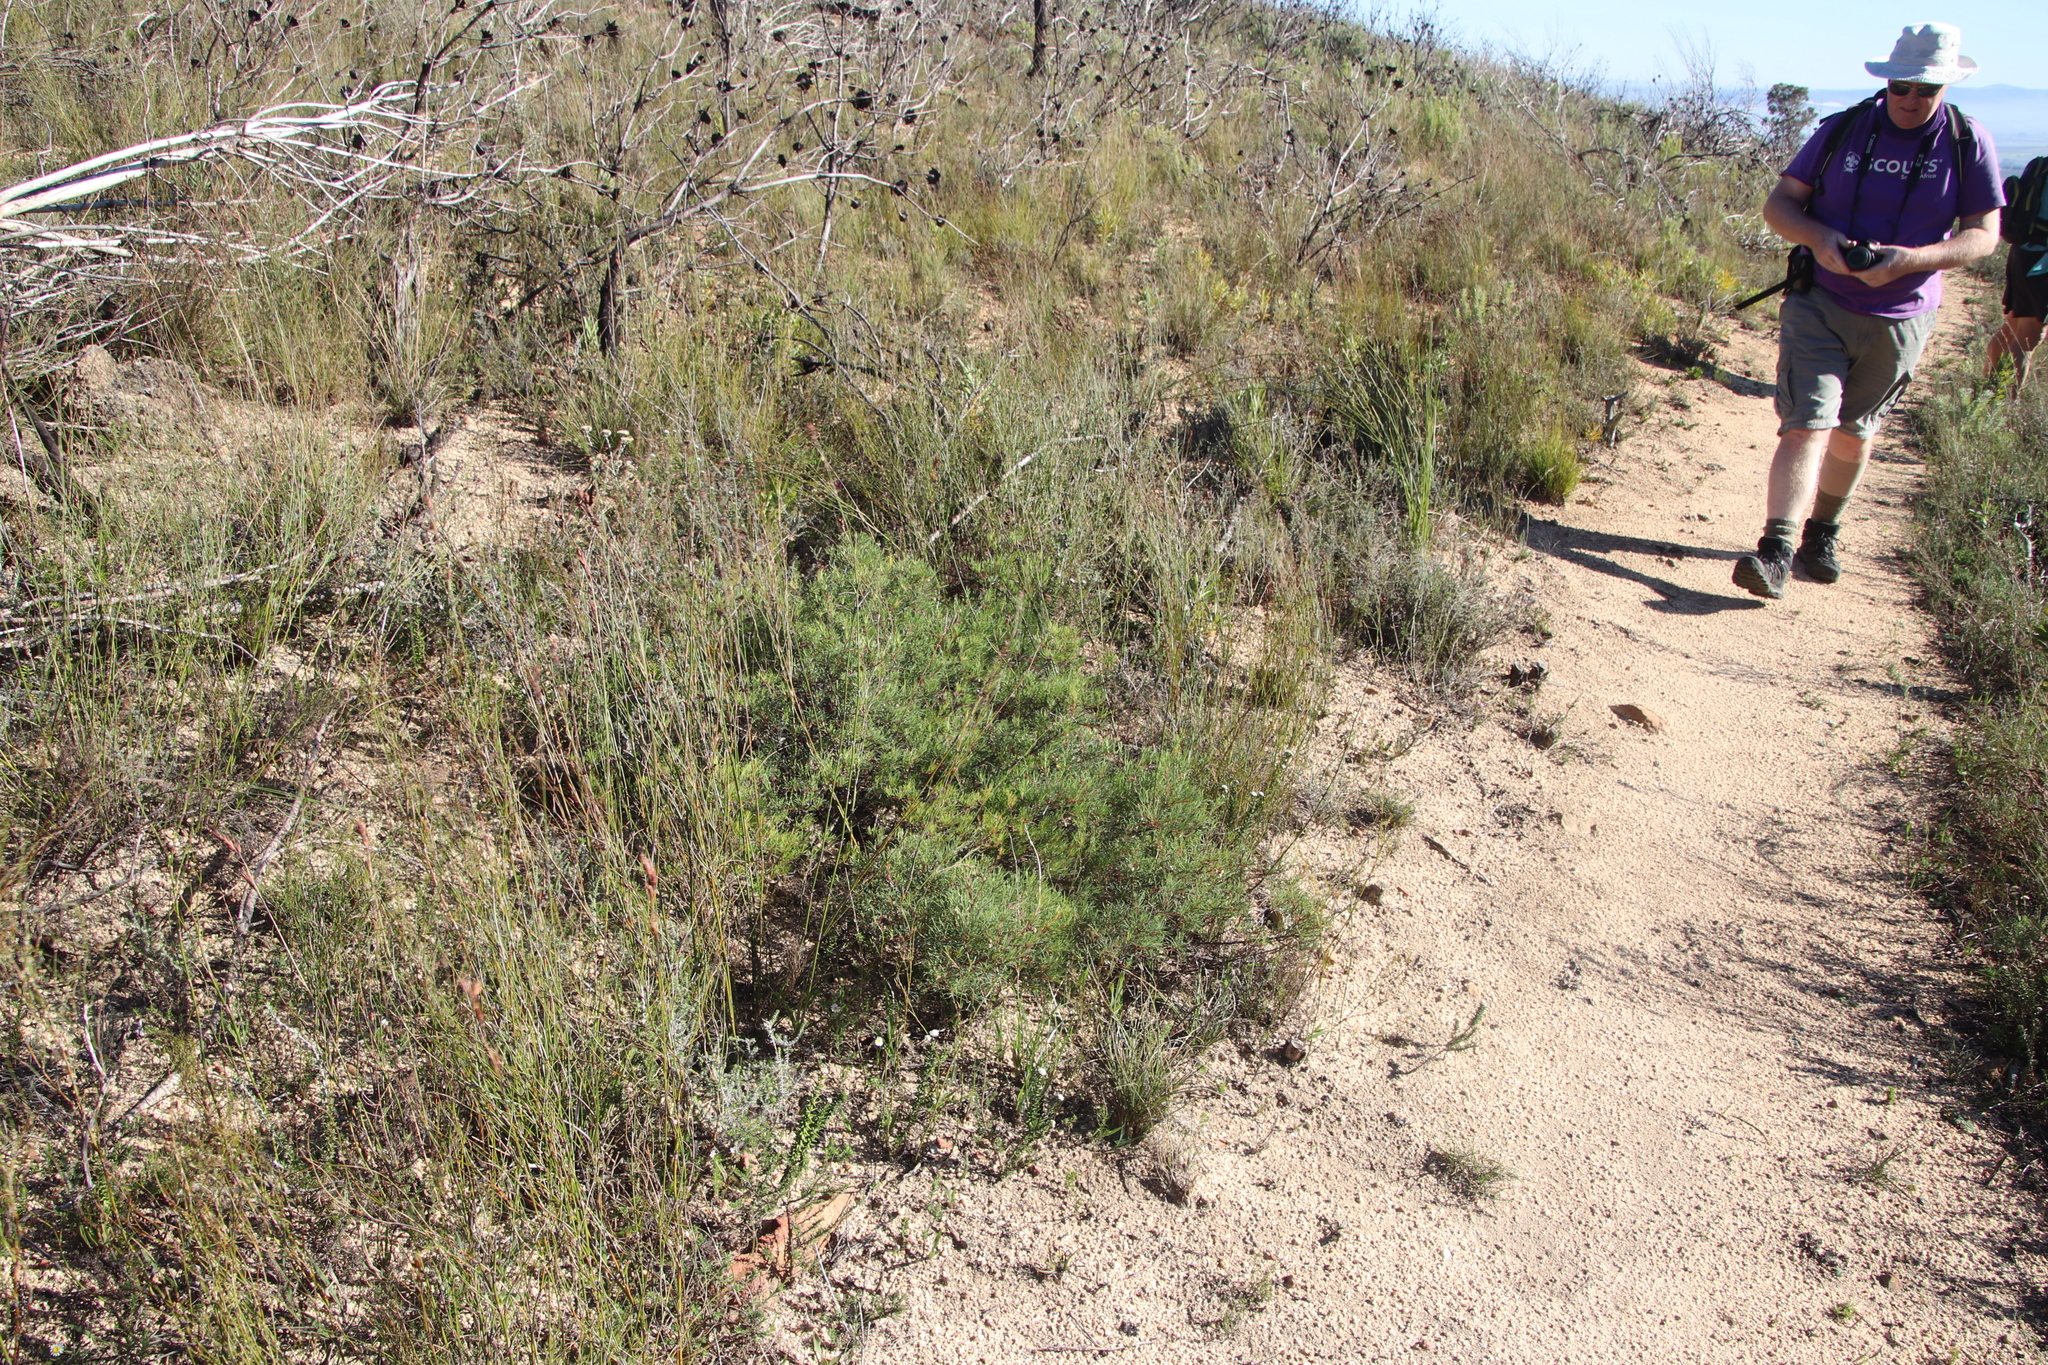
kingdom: Plantae
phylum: Tracheophyta
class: Magnoliopsida
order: Sapindales
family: Anacardiaceae
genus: Searsia
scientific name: Searsia rosmarinifolia
